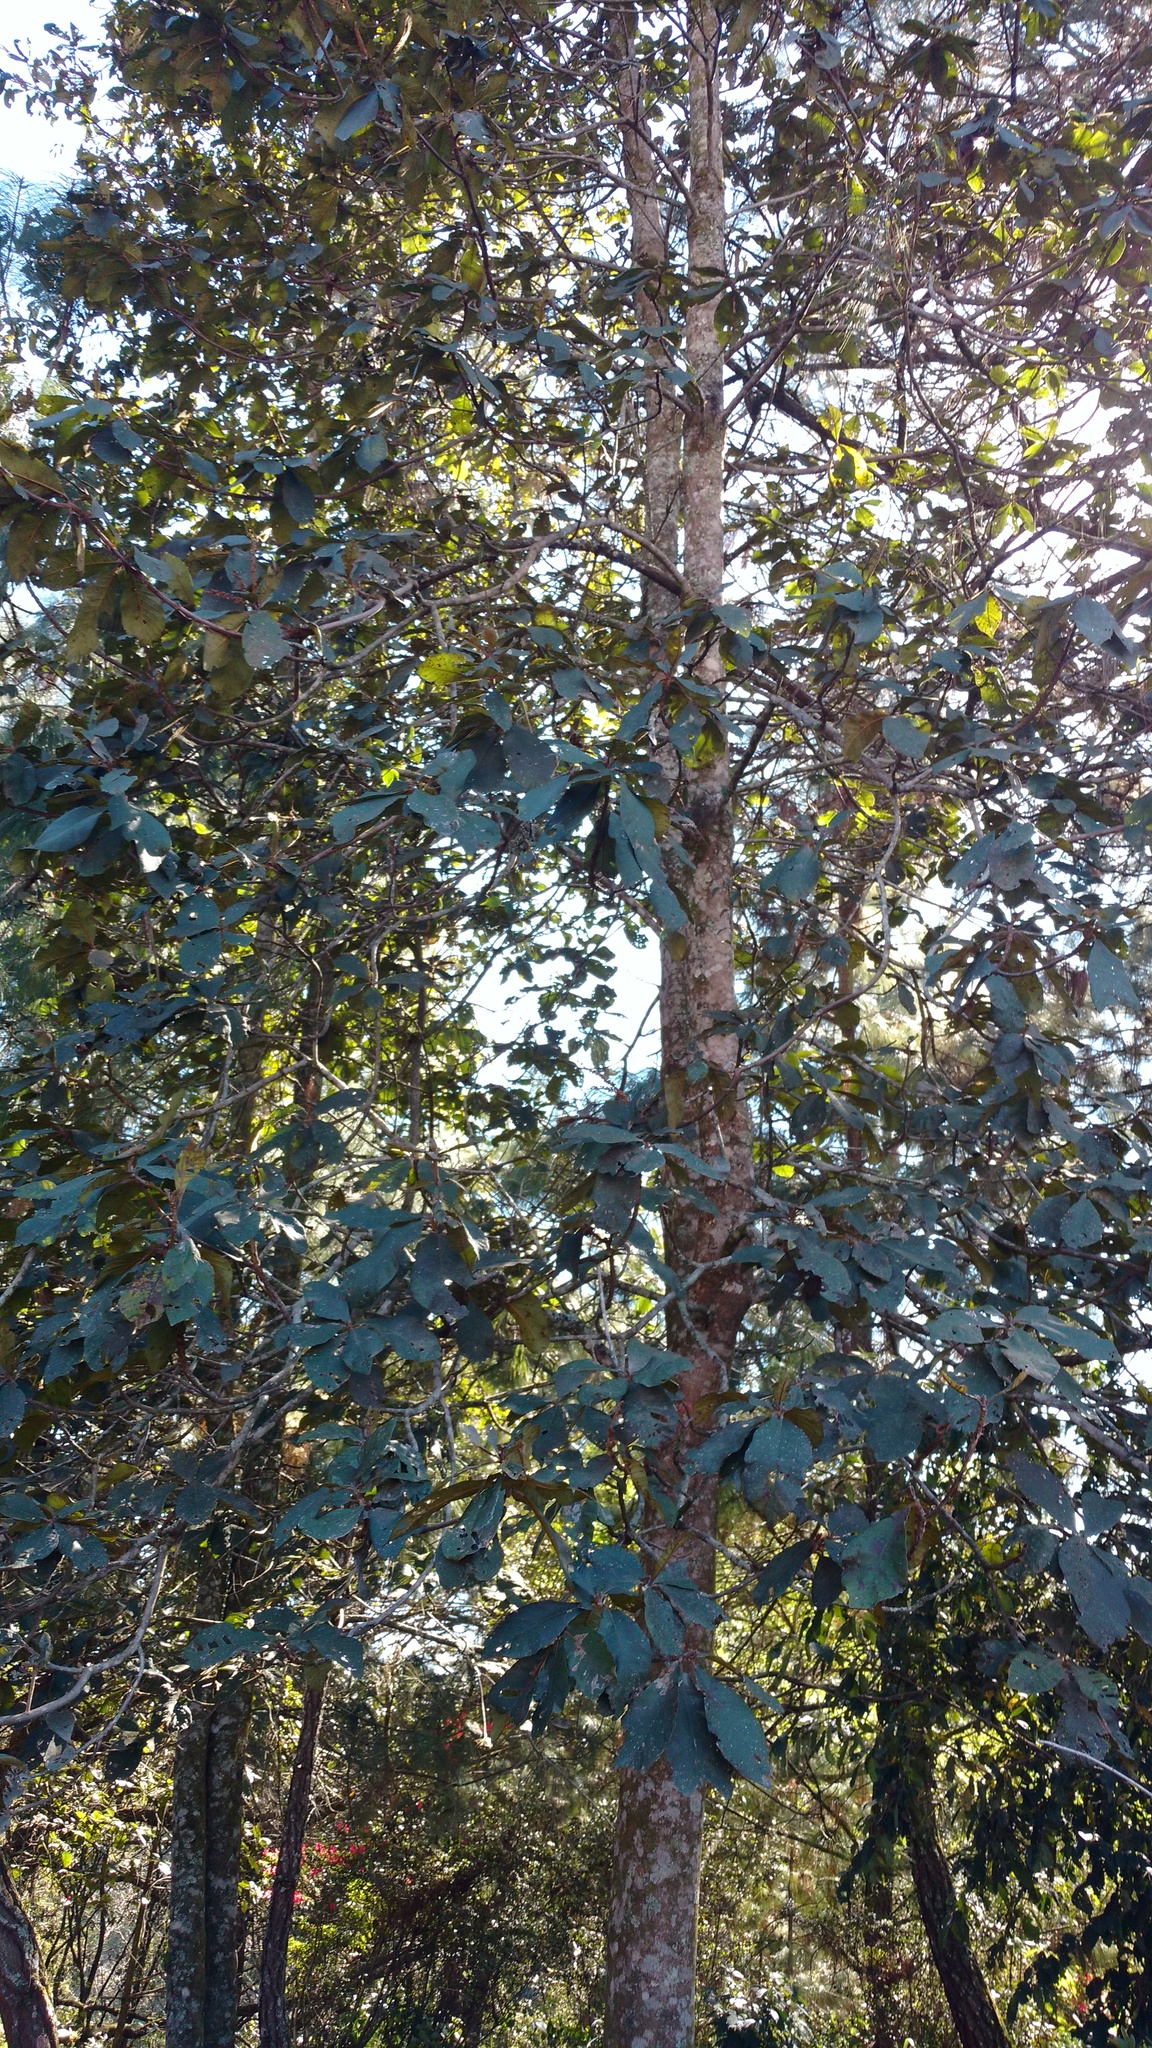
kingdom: Plantae
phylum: Tracheophyta
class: Magnoliopsida
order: Ericales
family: Clethraceae
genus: Clethra
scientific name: Clethra mexicana
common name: Nance macho
